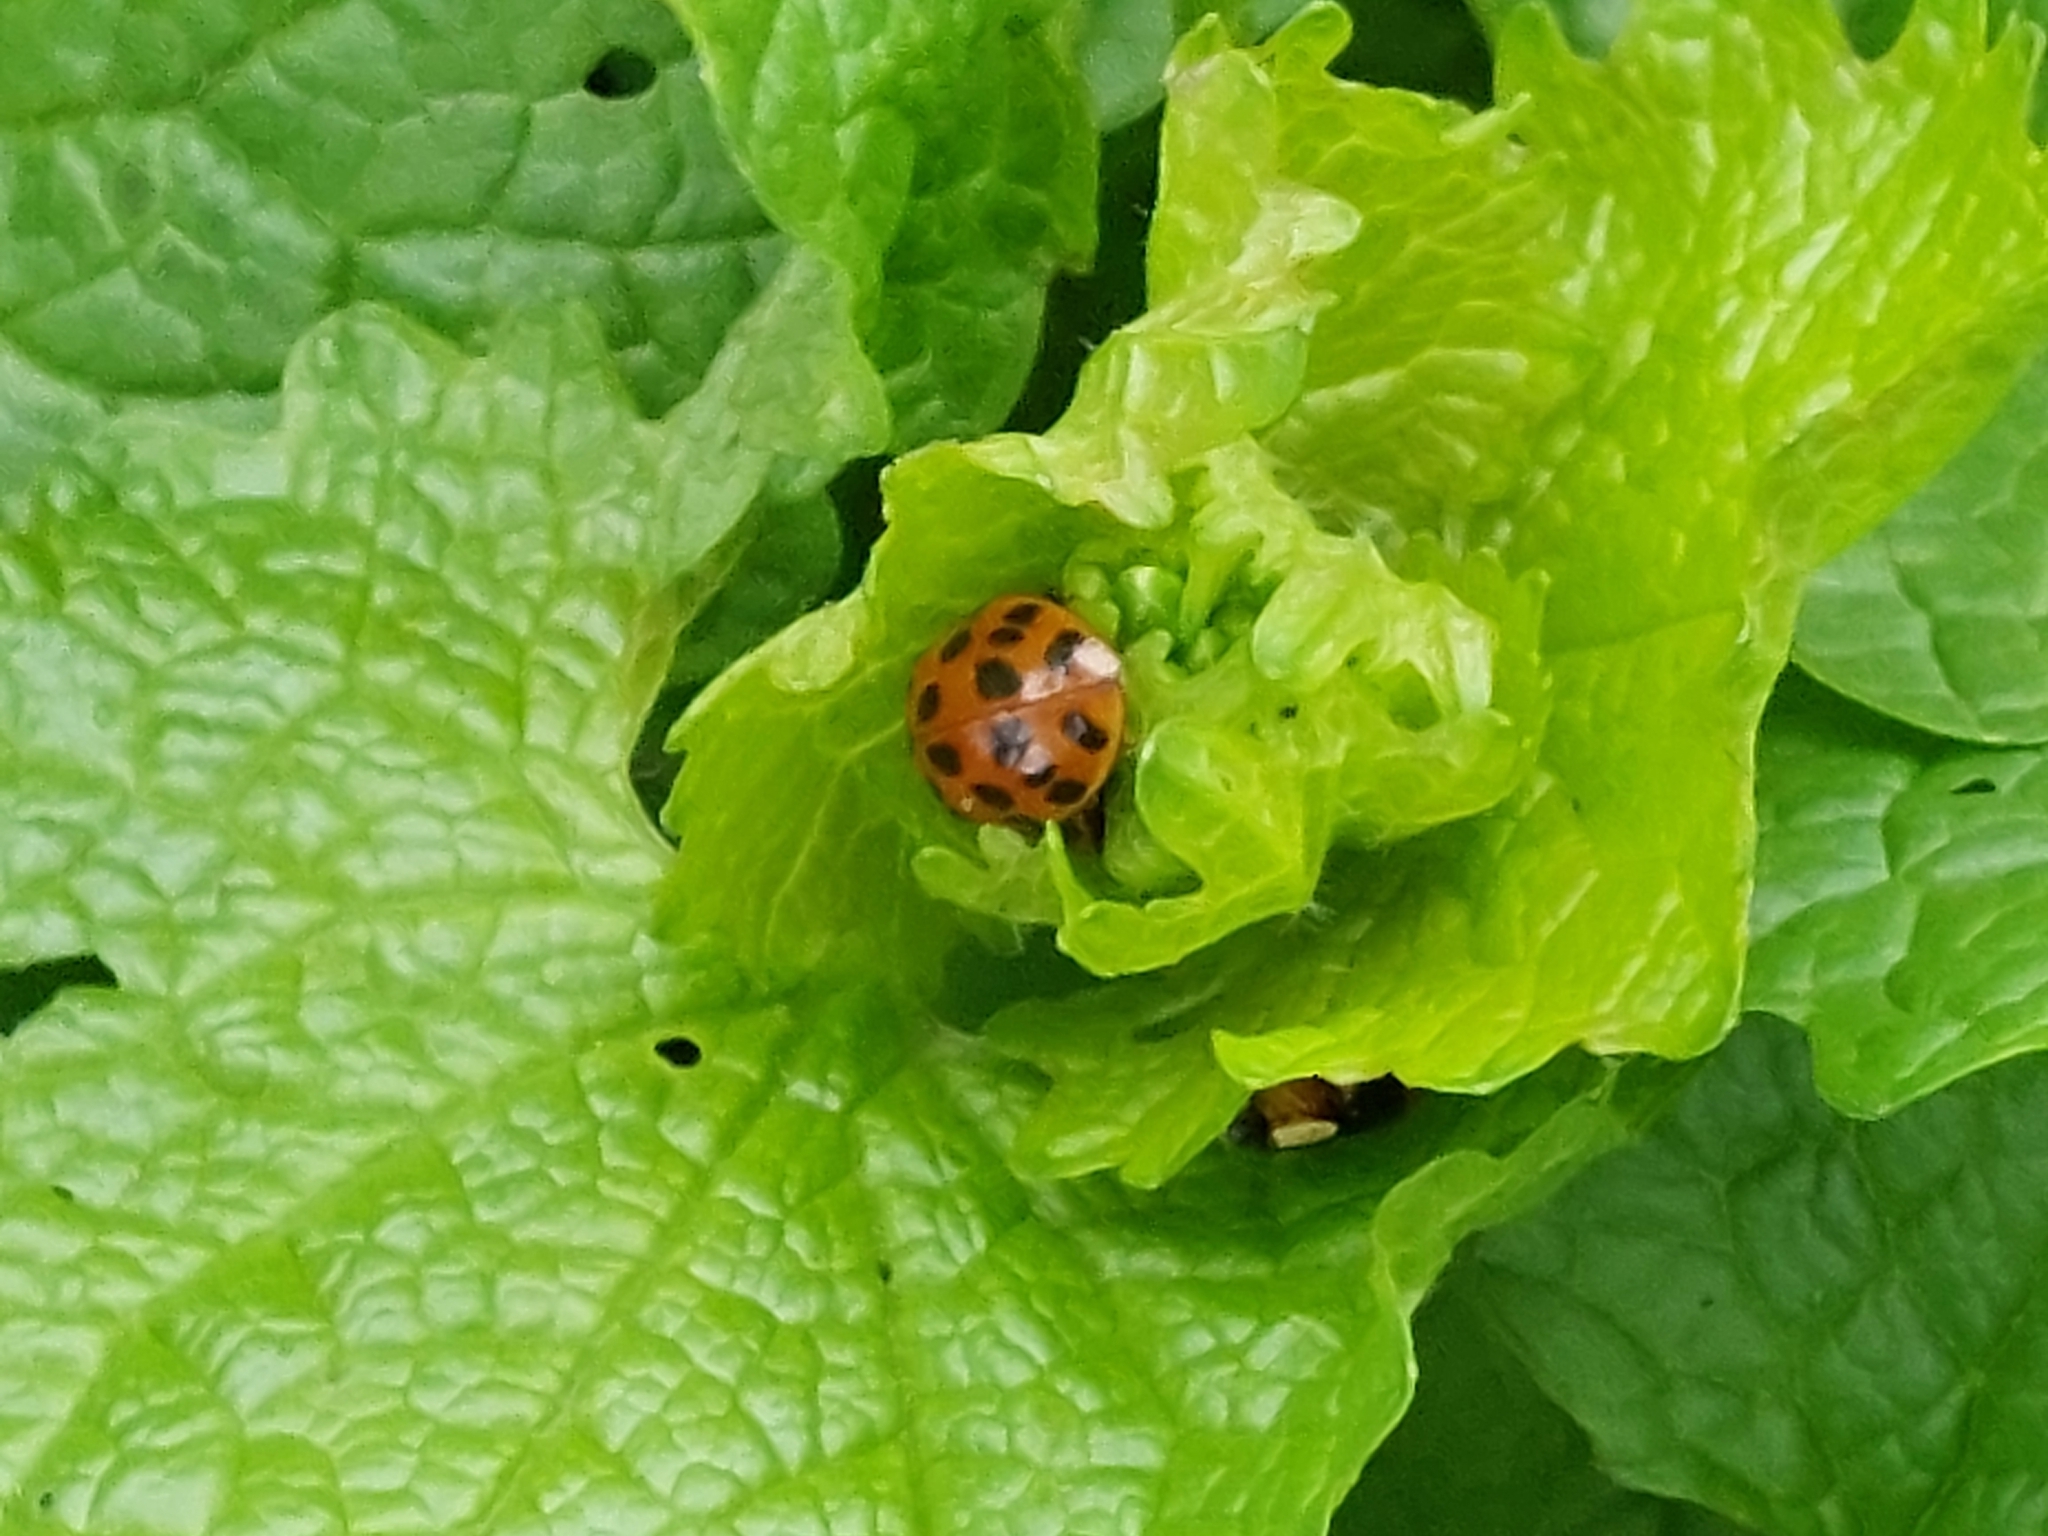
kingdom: Animalia
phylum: Arthropoda
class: Insecta
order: Coleoptera
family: Coccinellidae
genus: Harmonia
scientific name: Harmonia axyridis
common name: Harlequin ladybird
